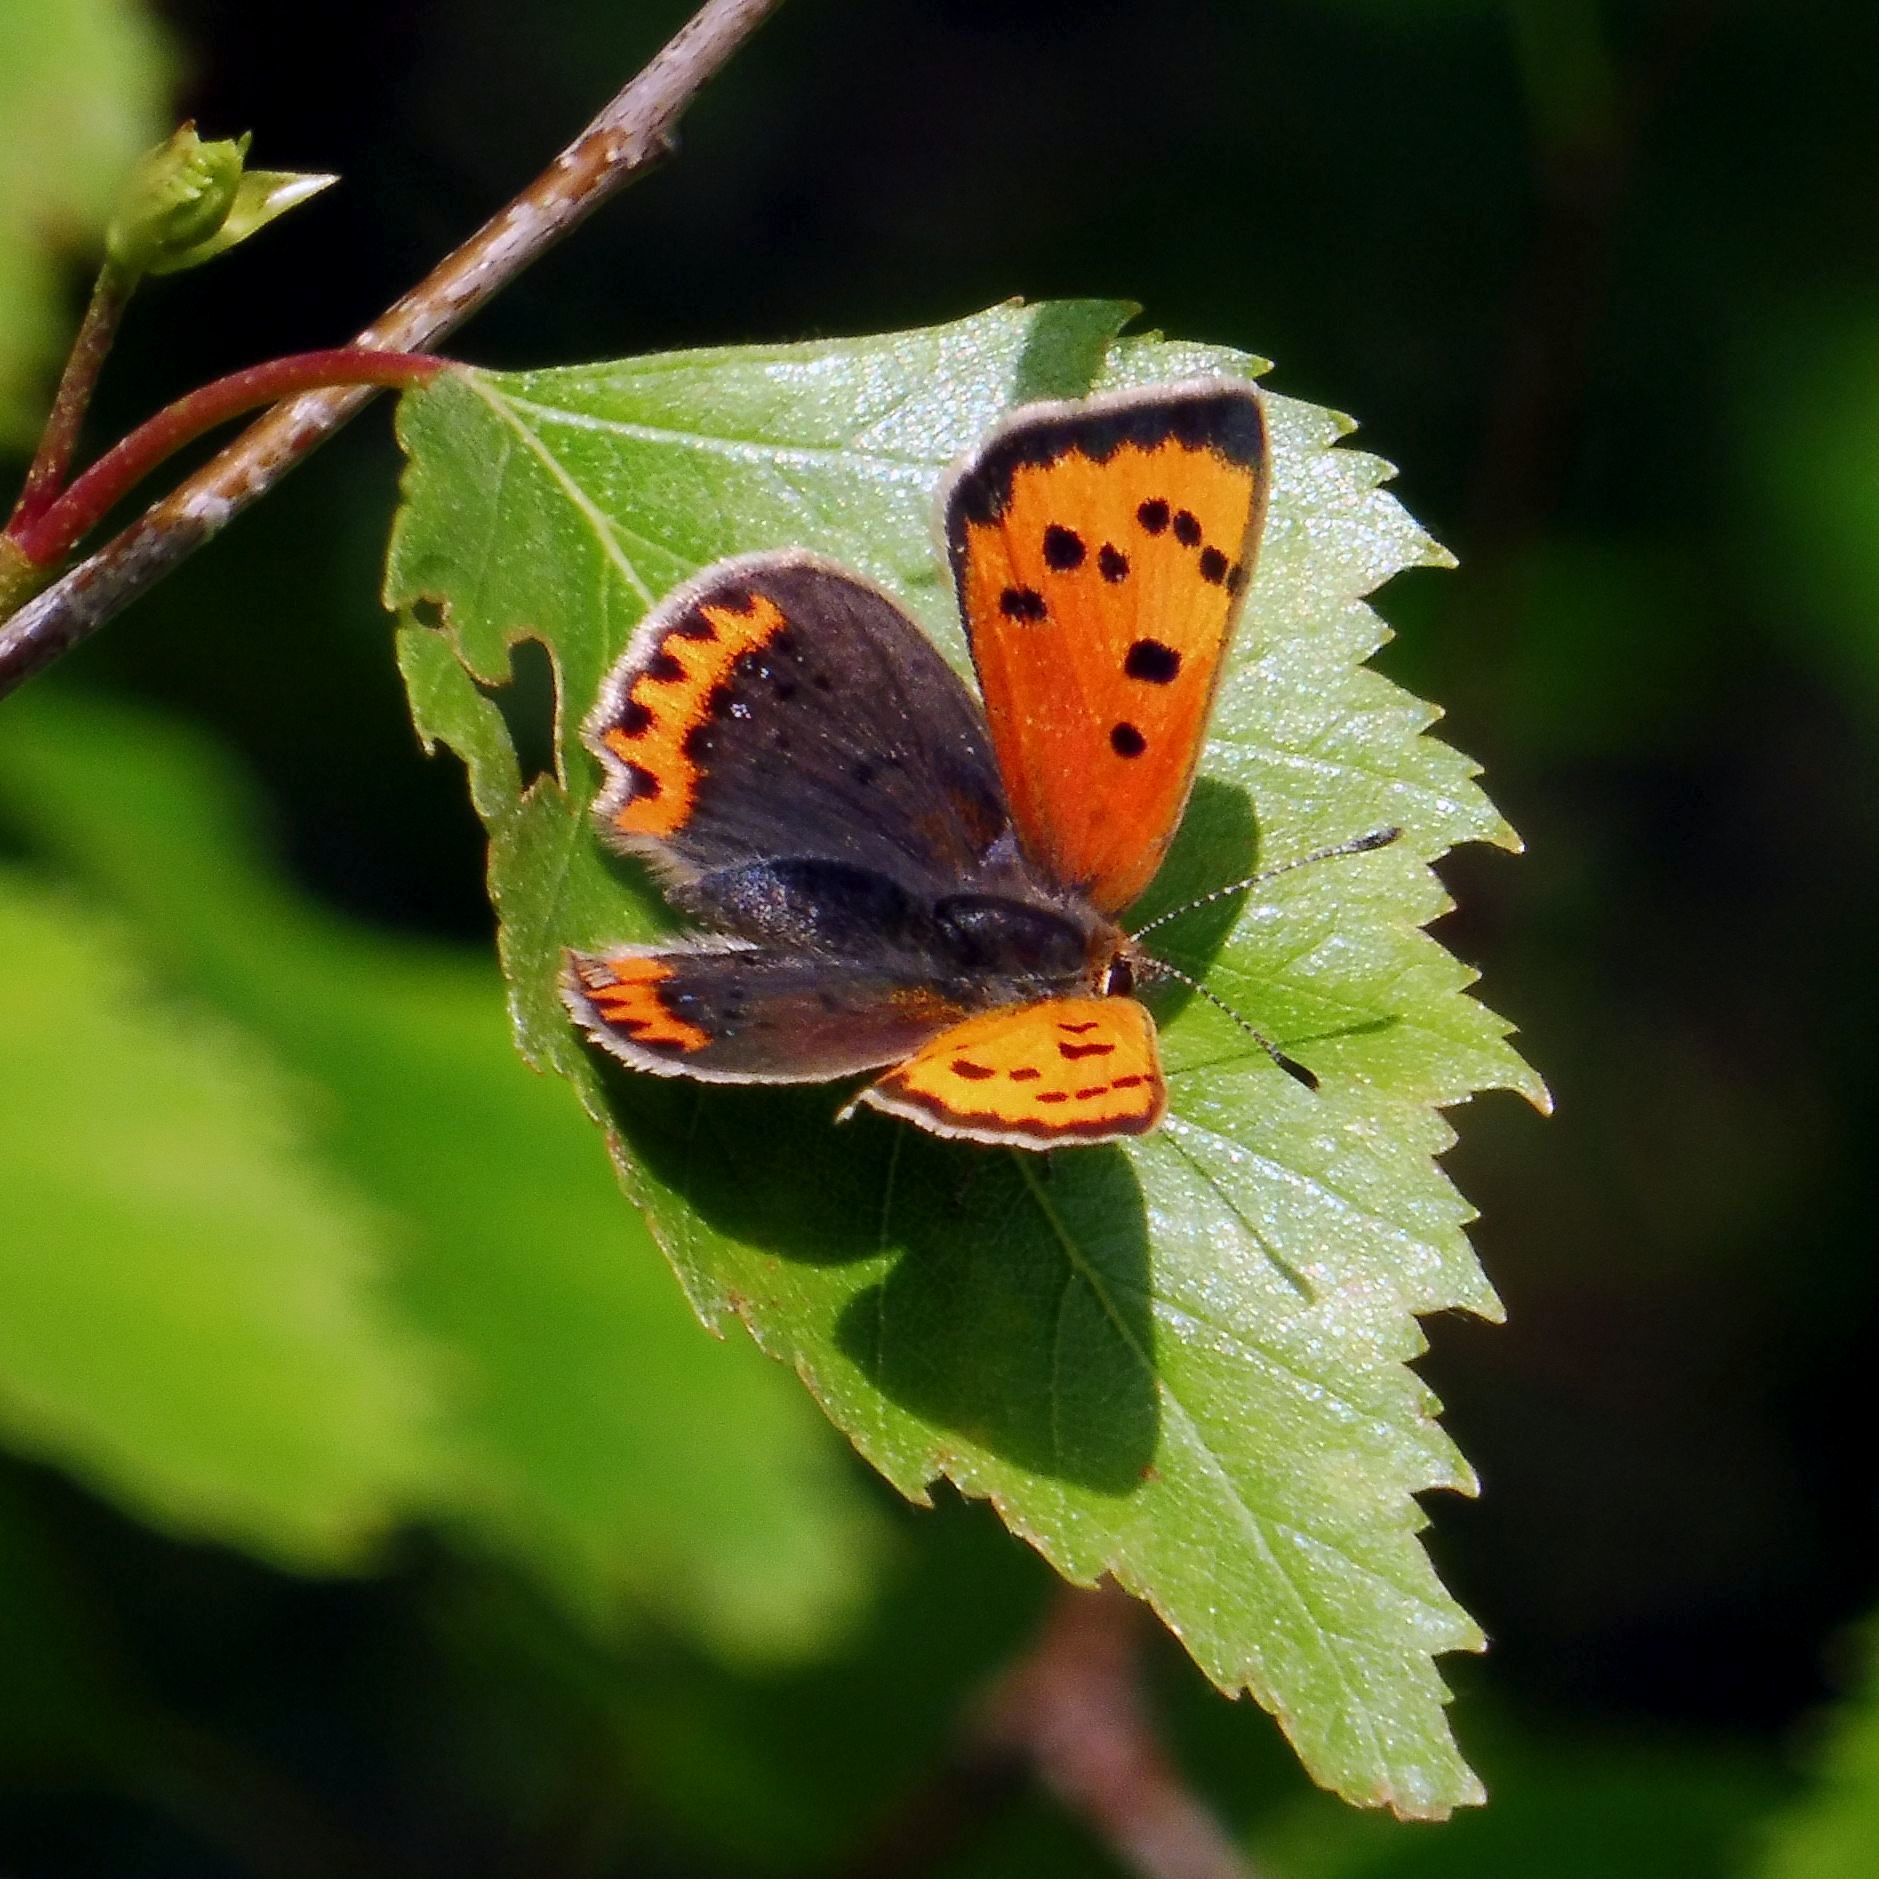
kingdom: Animalia
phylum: Arthropoda
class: Insecta
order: Lepidoptera
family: Lycaenidae
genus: Lycaena
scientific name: Lycaena phlaeas
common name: Small copper
